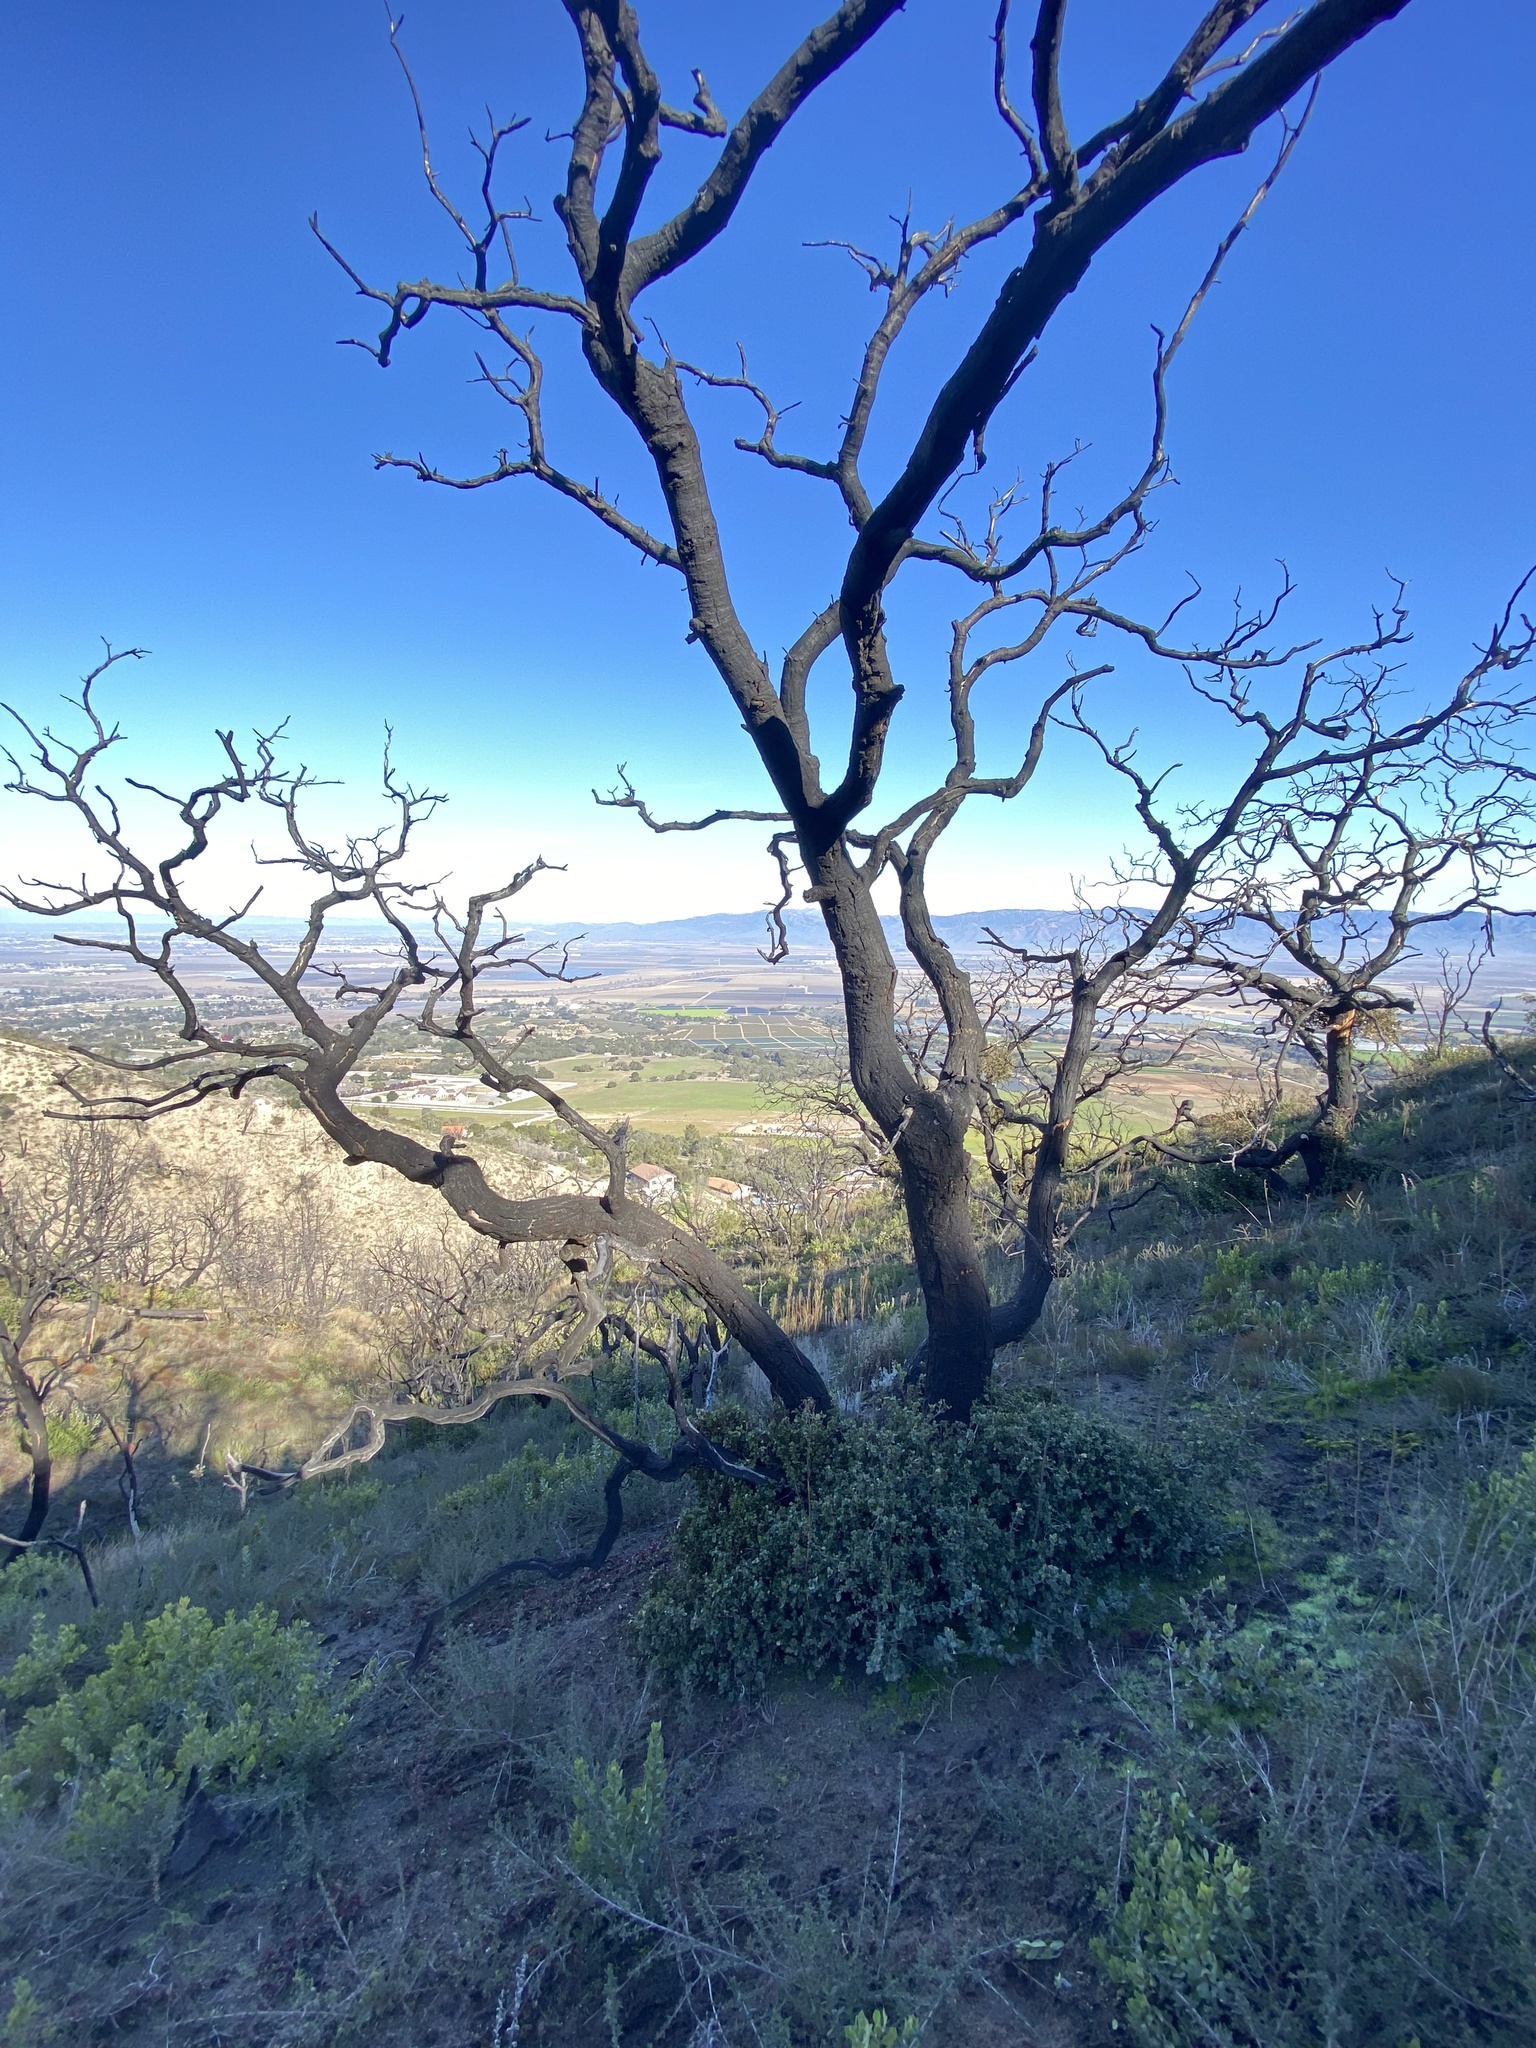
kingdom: Plantae
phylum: Tracheophyta
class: Magnoliopsida
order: Fagales
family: Fagaceae
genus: Quercus
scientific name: Quercus agrifolia
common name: California live oak
